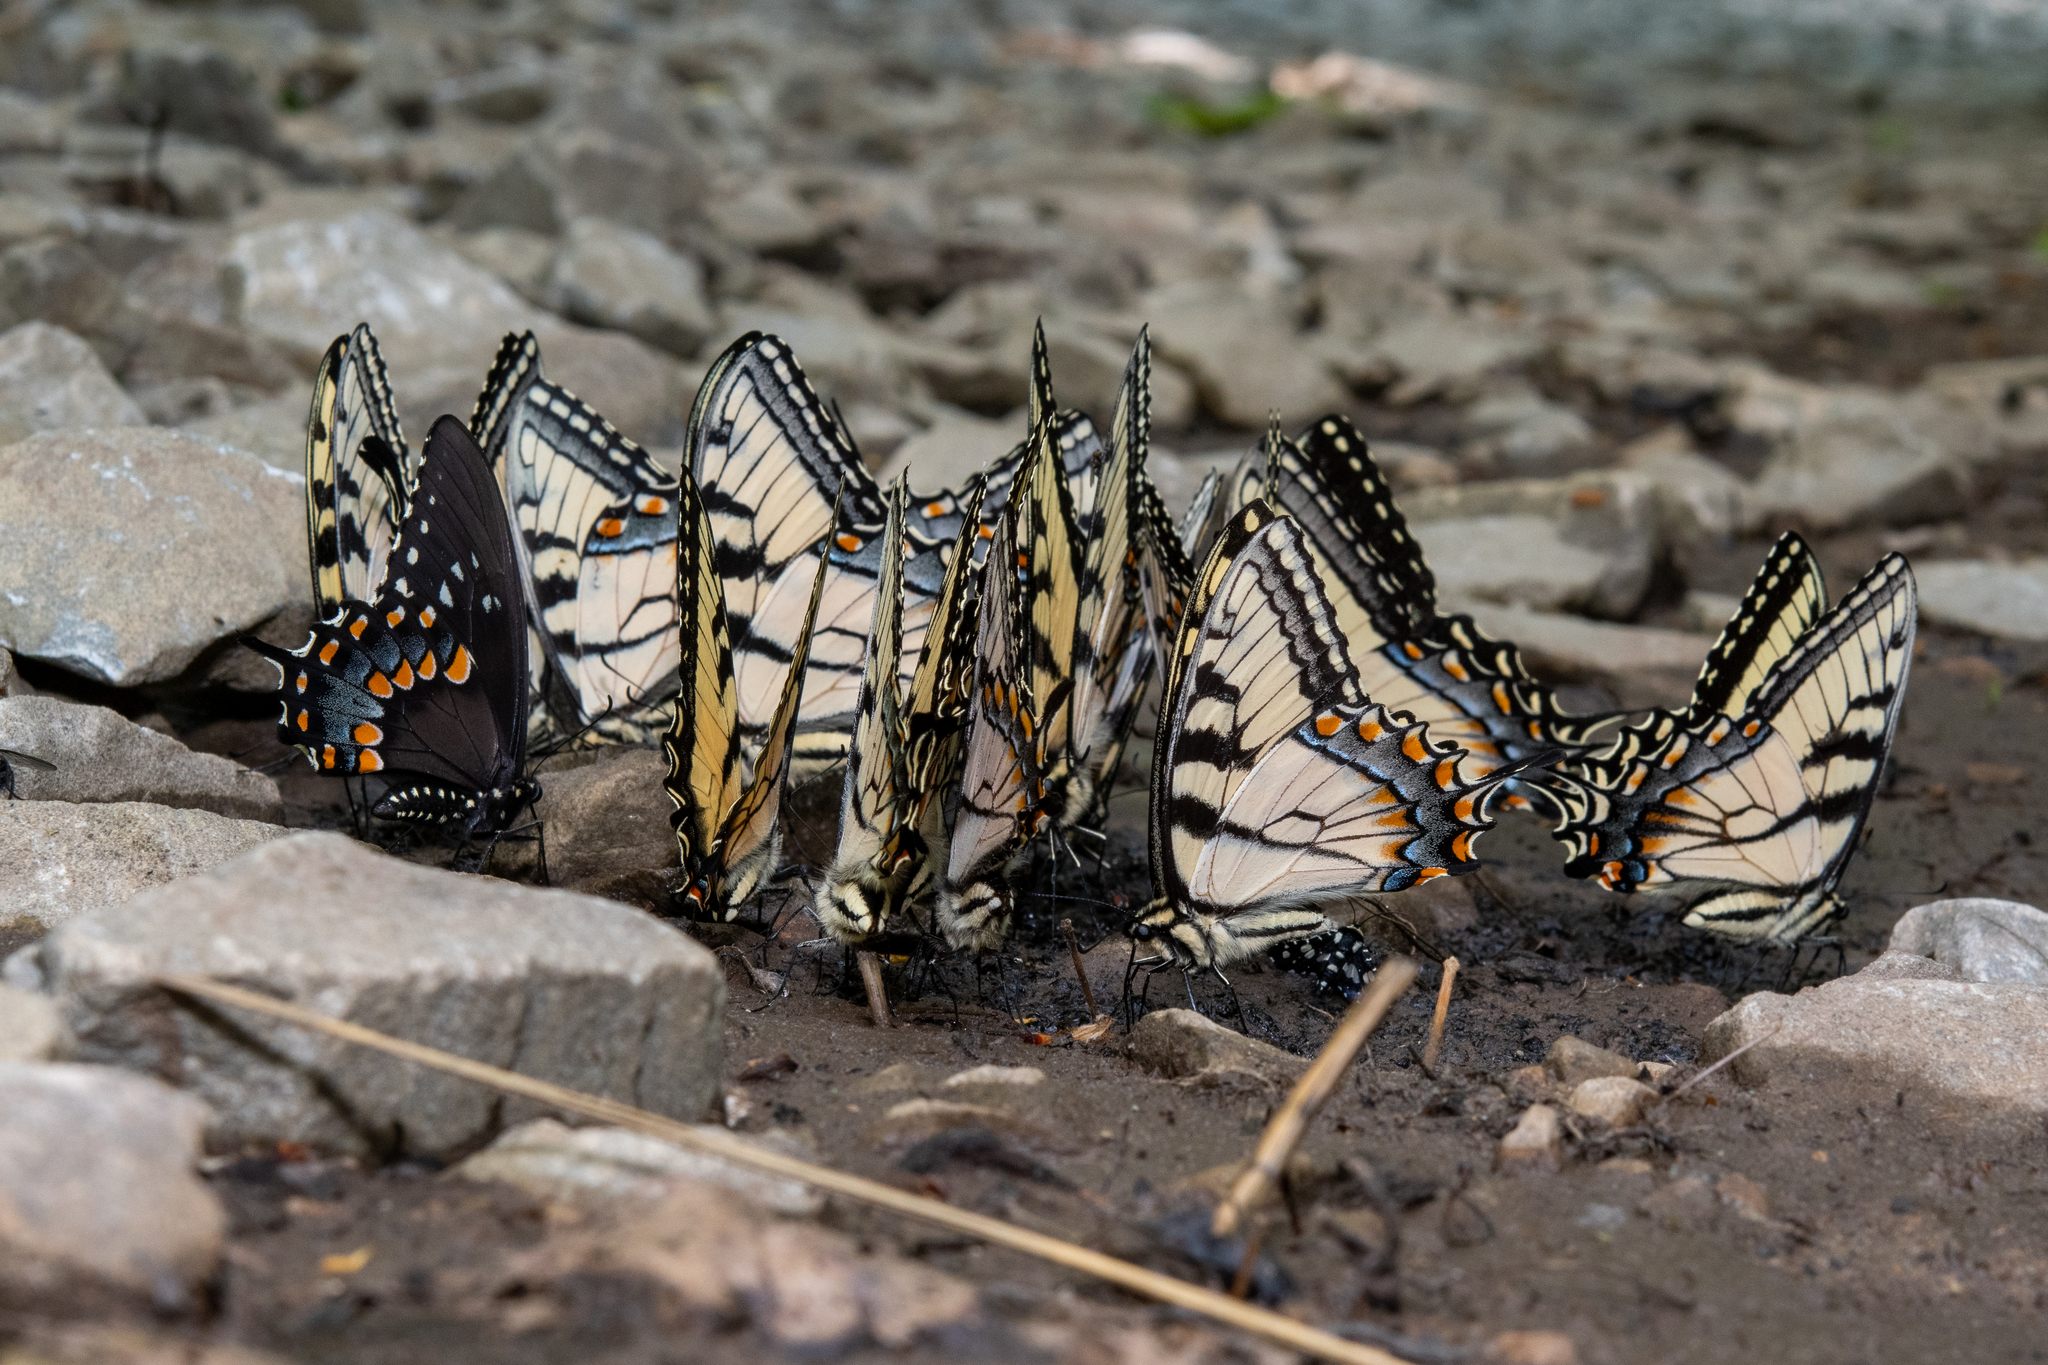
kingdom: Animalia
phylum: Arthropoda
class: Insecta
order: Lepidoptera
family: Papilionidae
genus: Papilio
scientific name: Papilio glaucus
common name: Tiger swallowtail
